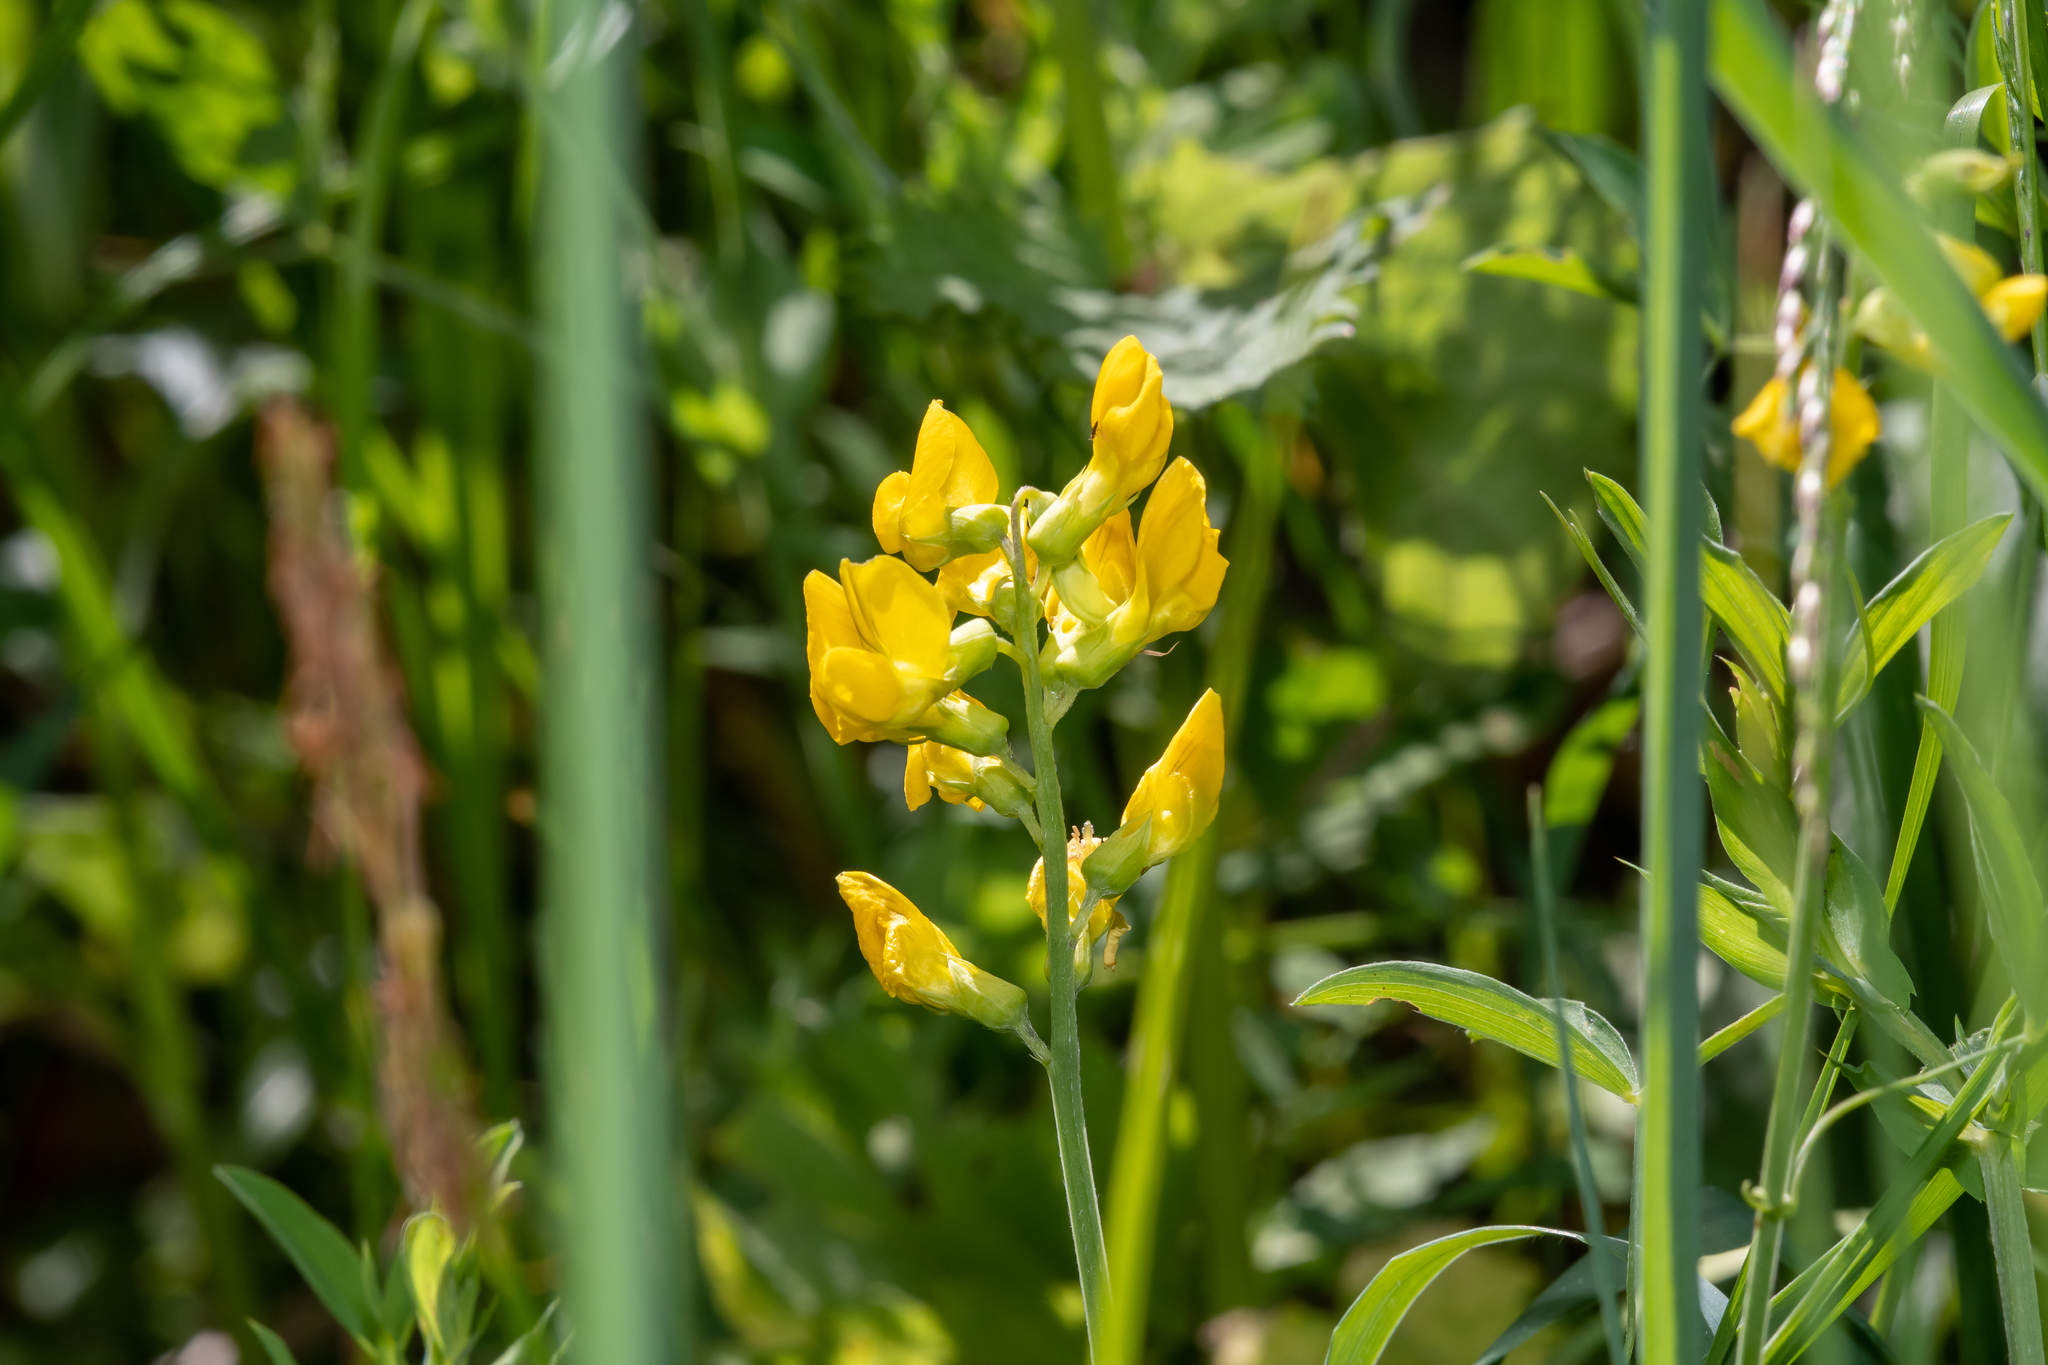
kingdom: Plantae
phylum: Tracheophyta
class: Magnoliopsida
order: Fabales
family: Fabaceae
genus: Lathyrus
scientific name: Lathyrus pratensis
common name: Meadow vetchling
